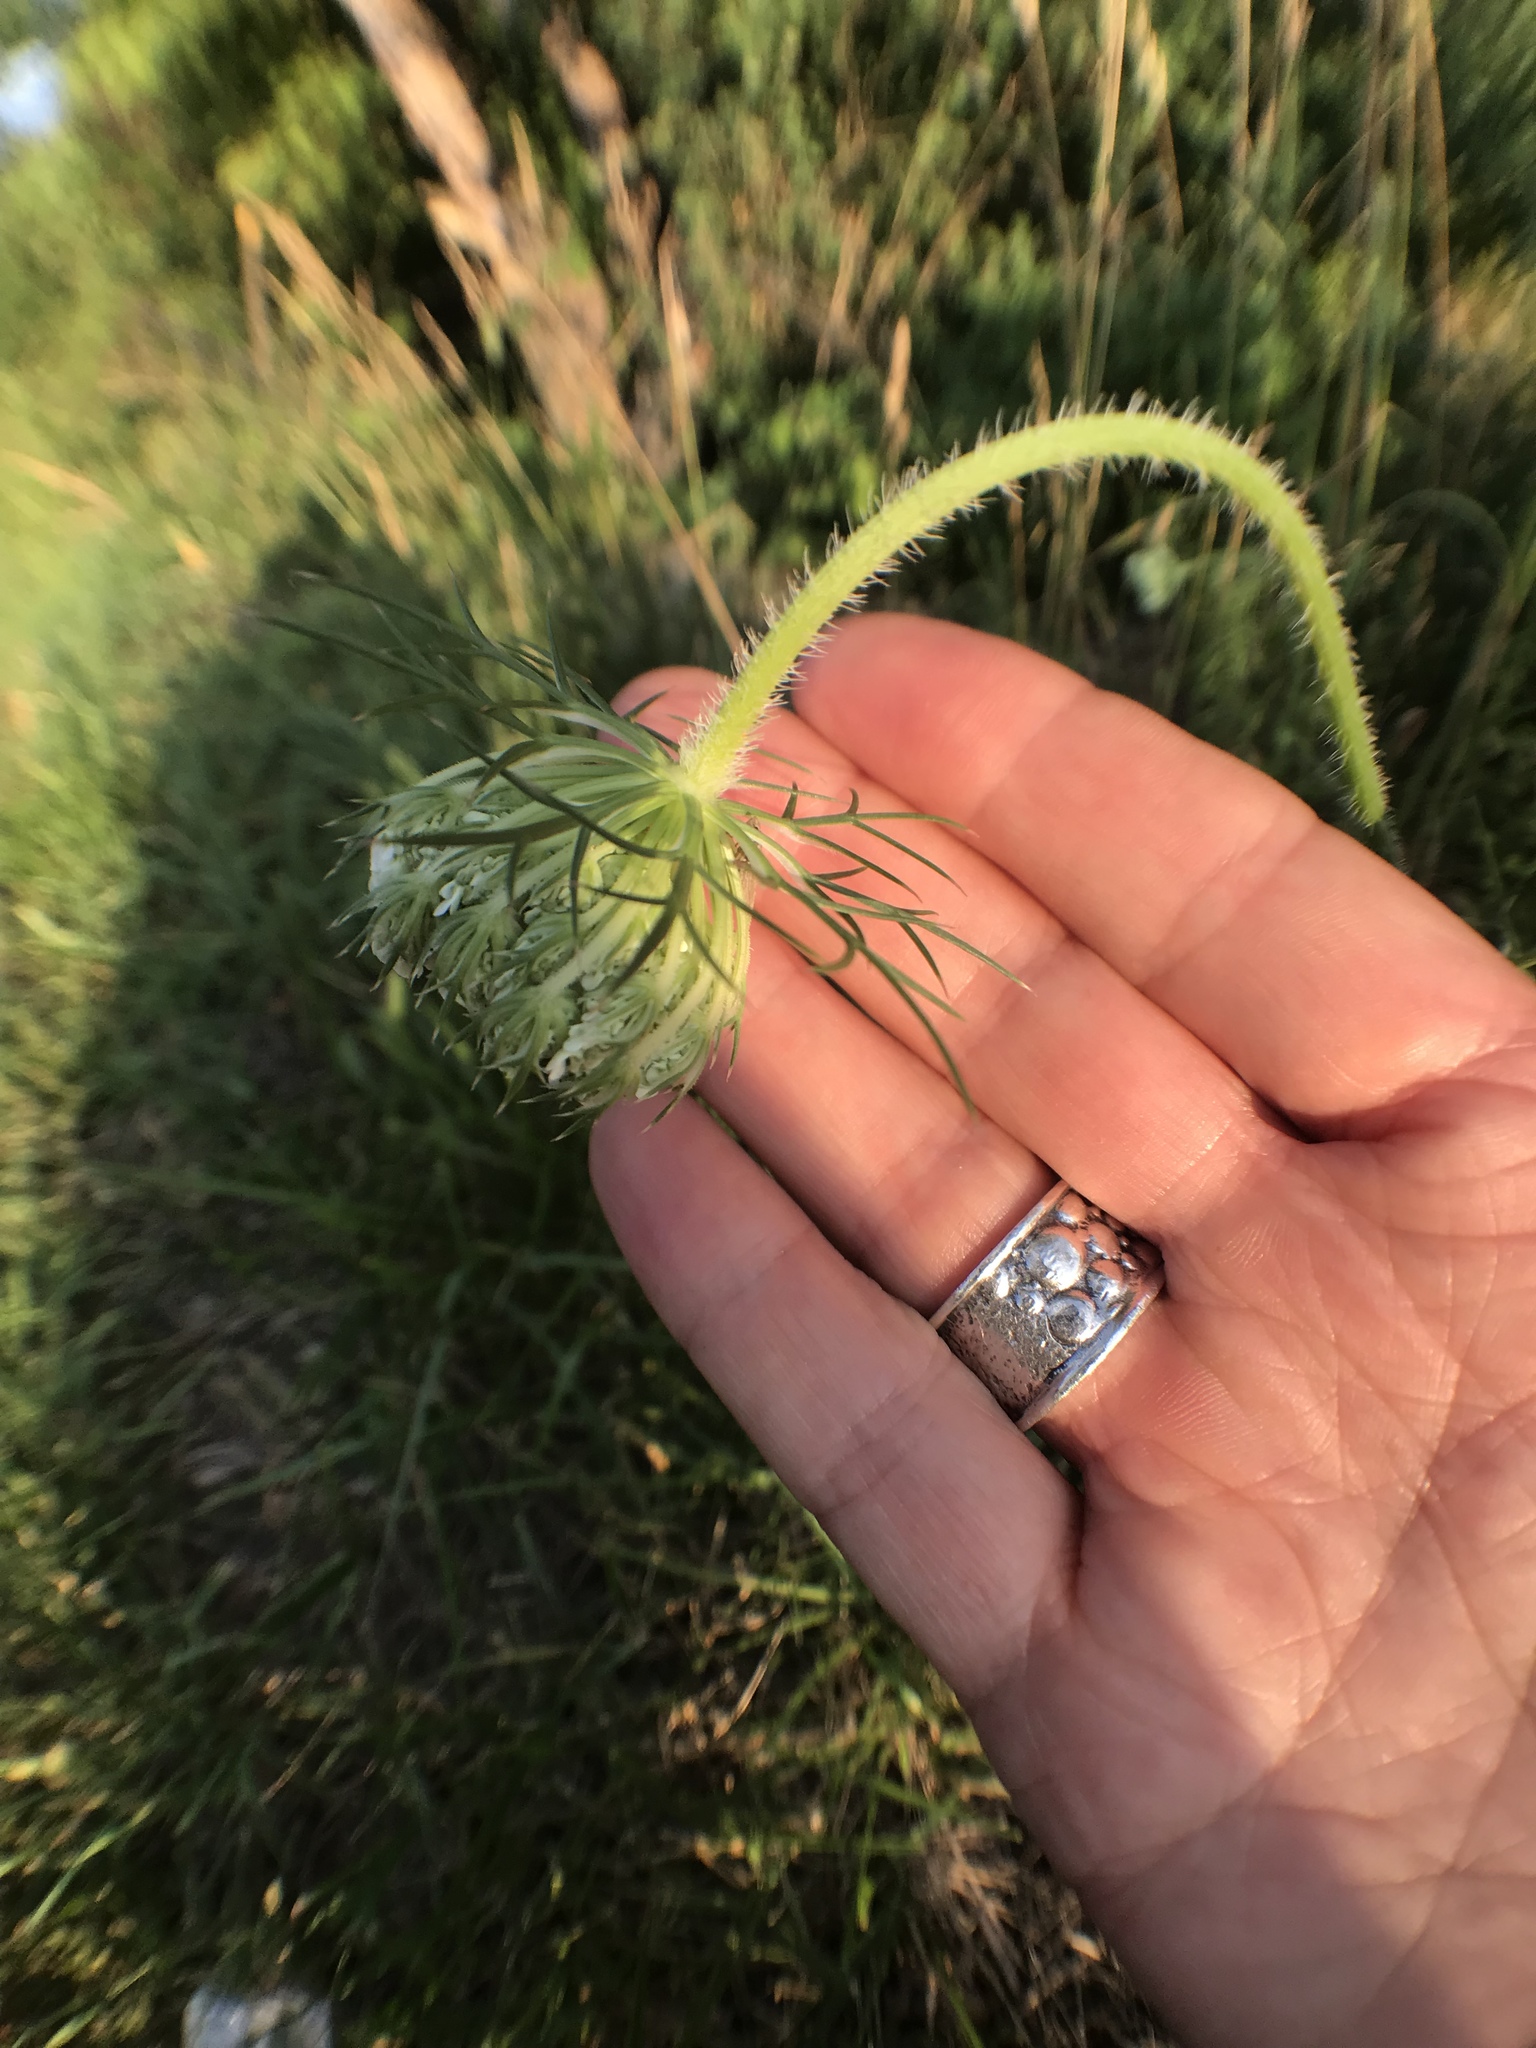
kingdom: Plantae
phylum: Tracheophyta
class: Magnoliopsida
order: Apiales
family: Apiaceae
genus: Daucus
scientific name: Daucus carota
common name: Wild carrot
